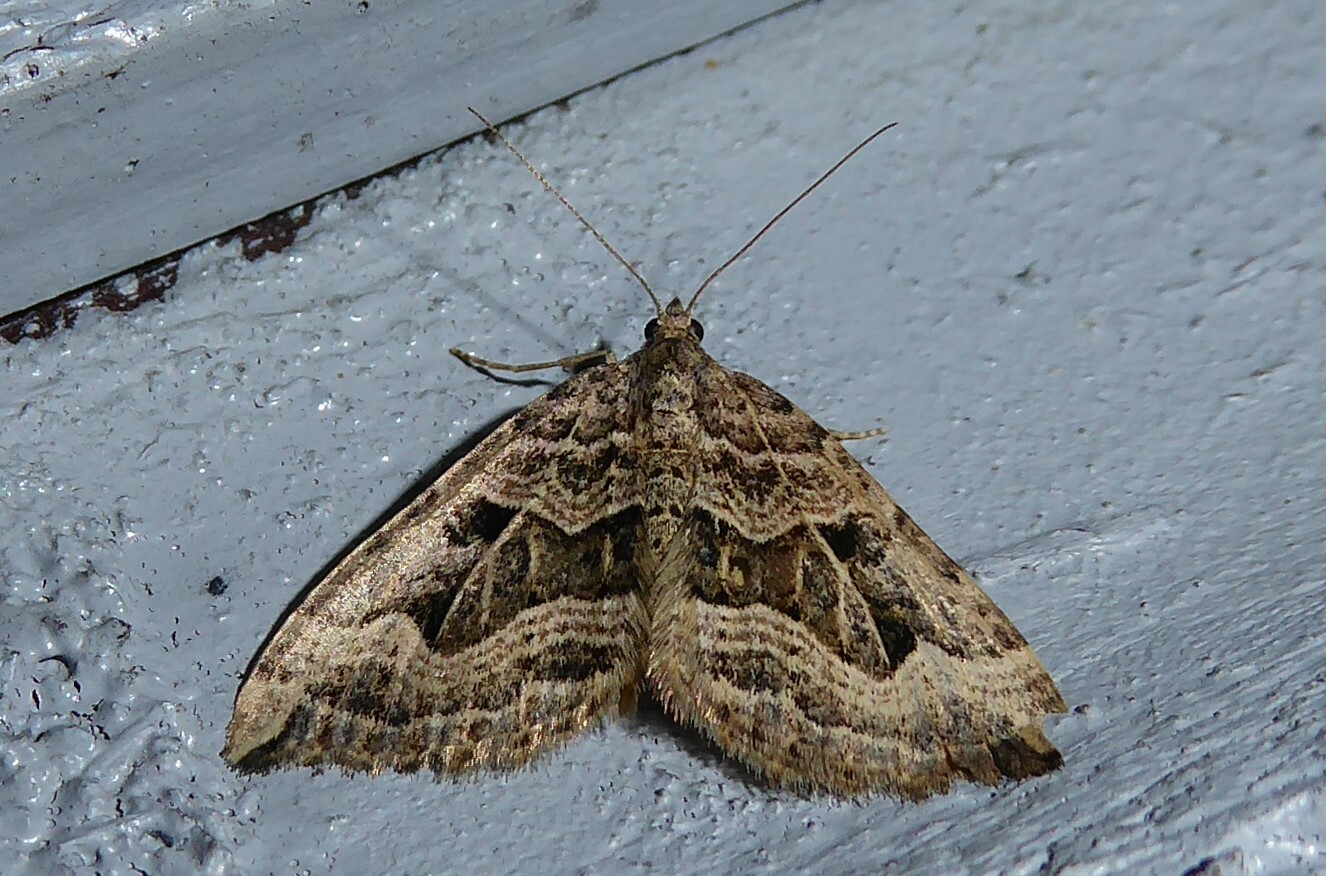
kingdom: Animalia
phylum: Arthropoda
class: Insecta
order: Lepidoptera
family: Geometridae
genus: Xanthorhoe
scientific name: Xanthorhoe semifissata
